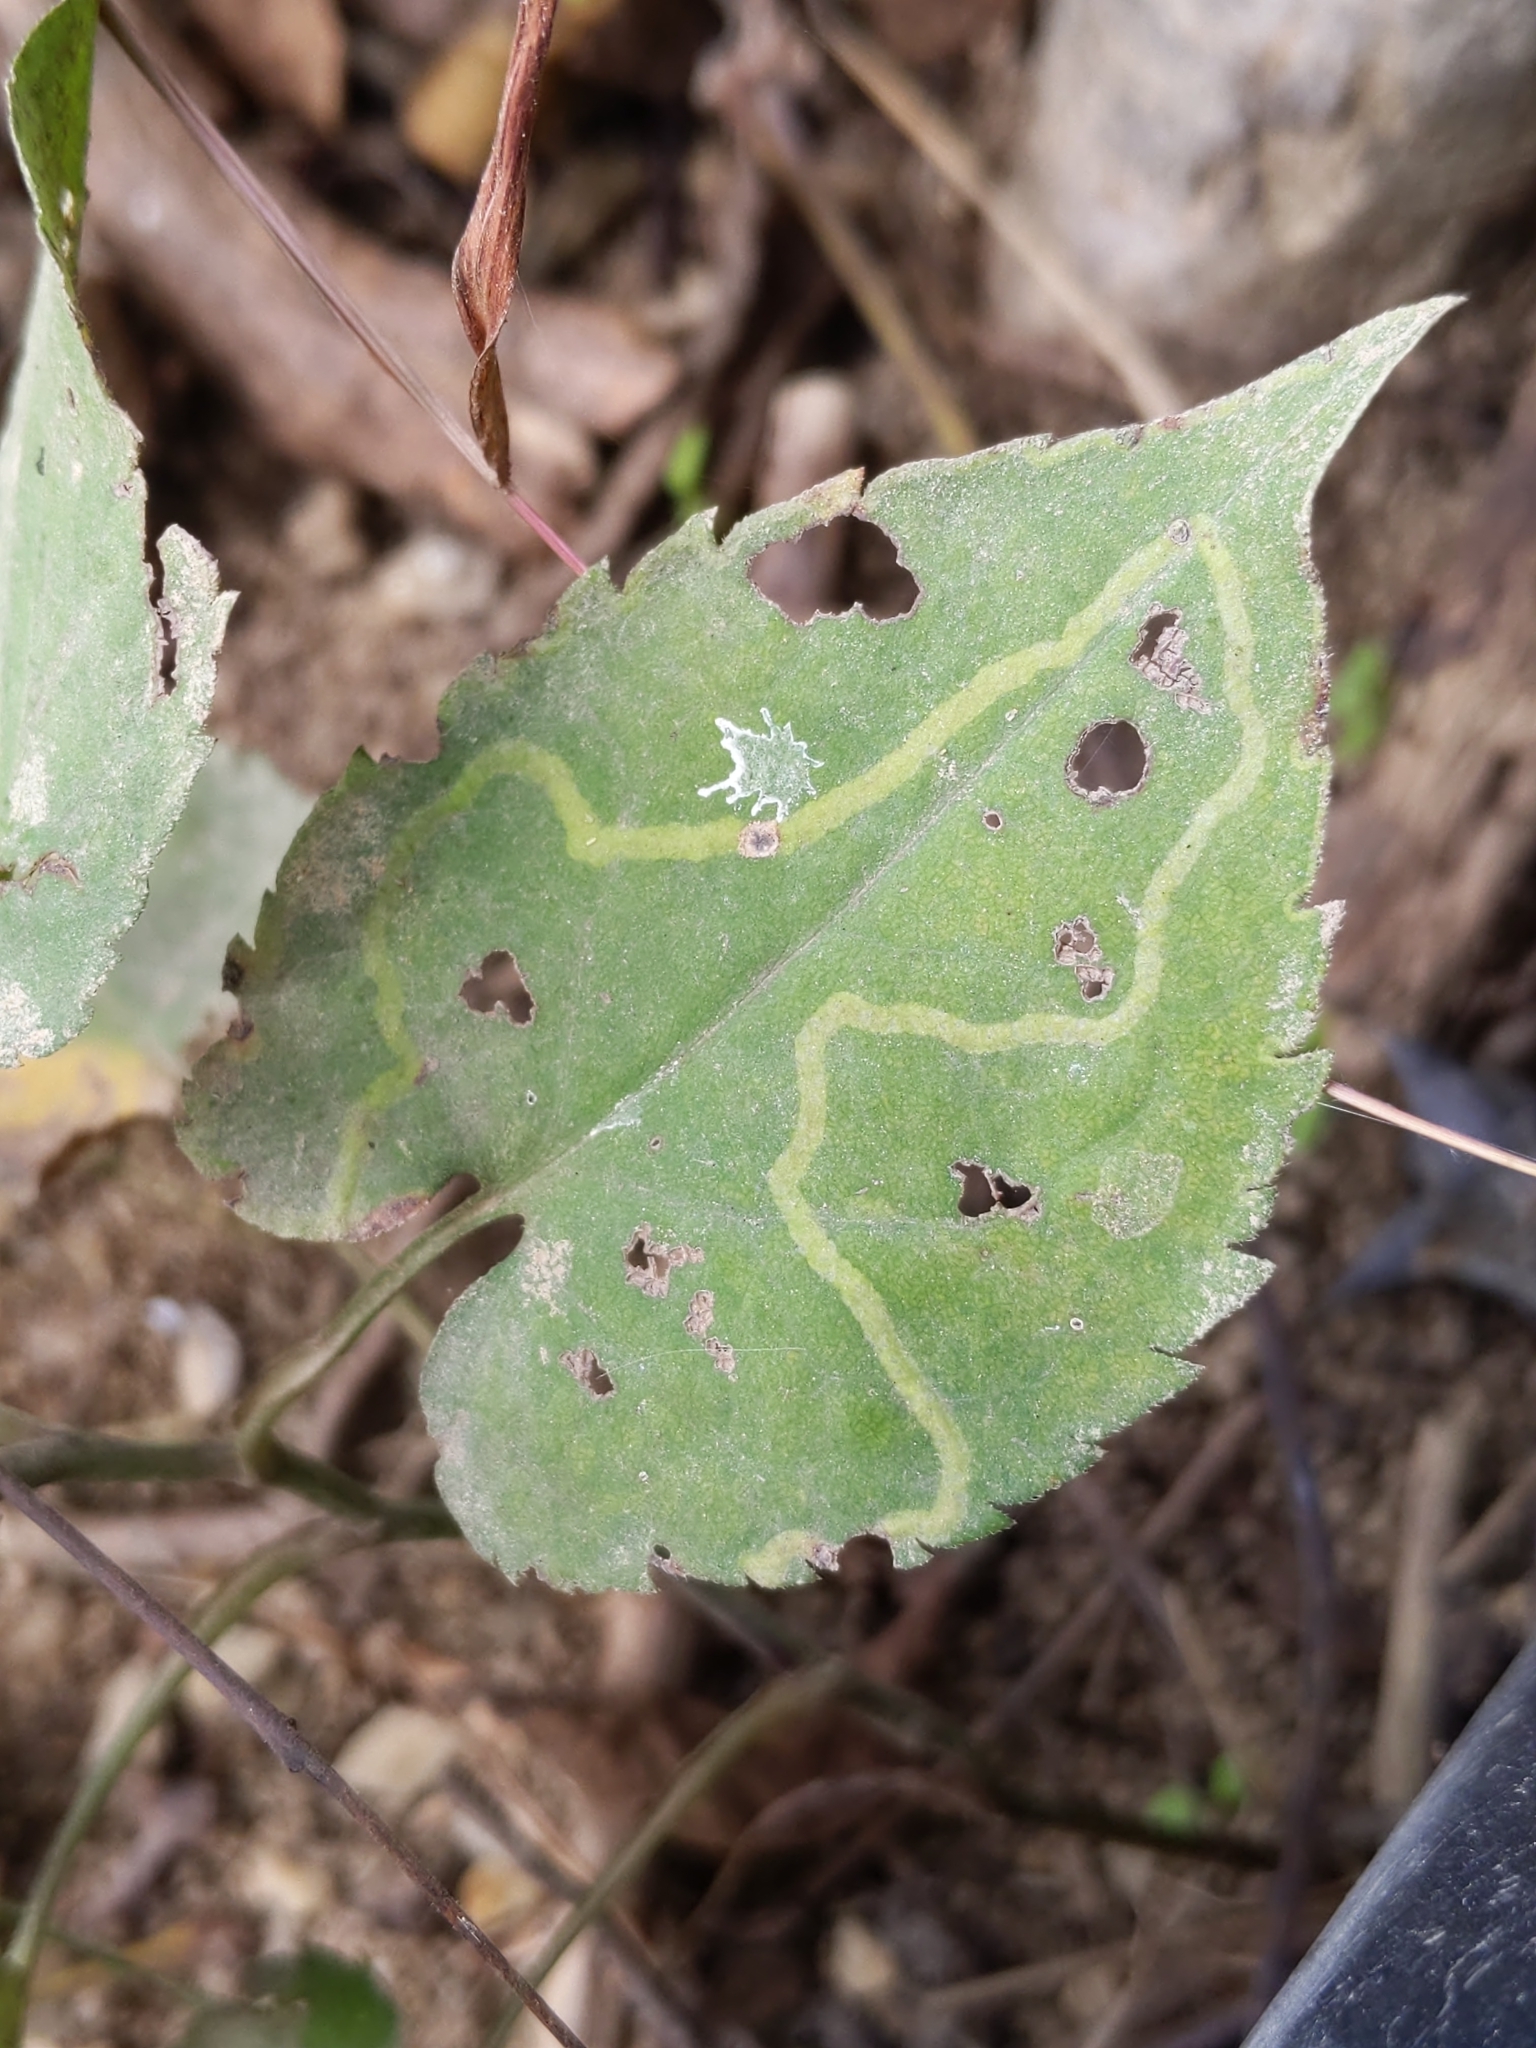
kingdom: Animalia
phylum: Arthropoda
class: Insecta
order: Diptera
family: Agromyzidae
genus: Ophiomyia
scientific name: Ophiomyia parda
